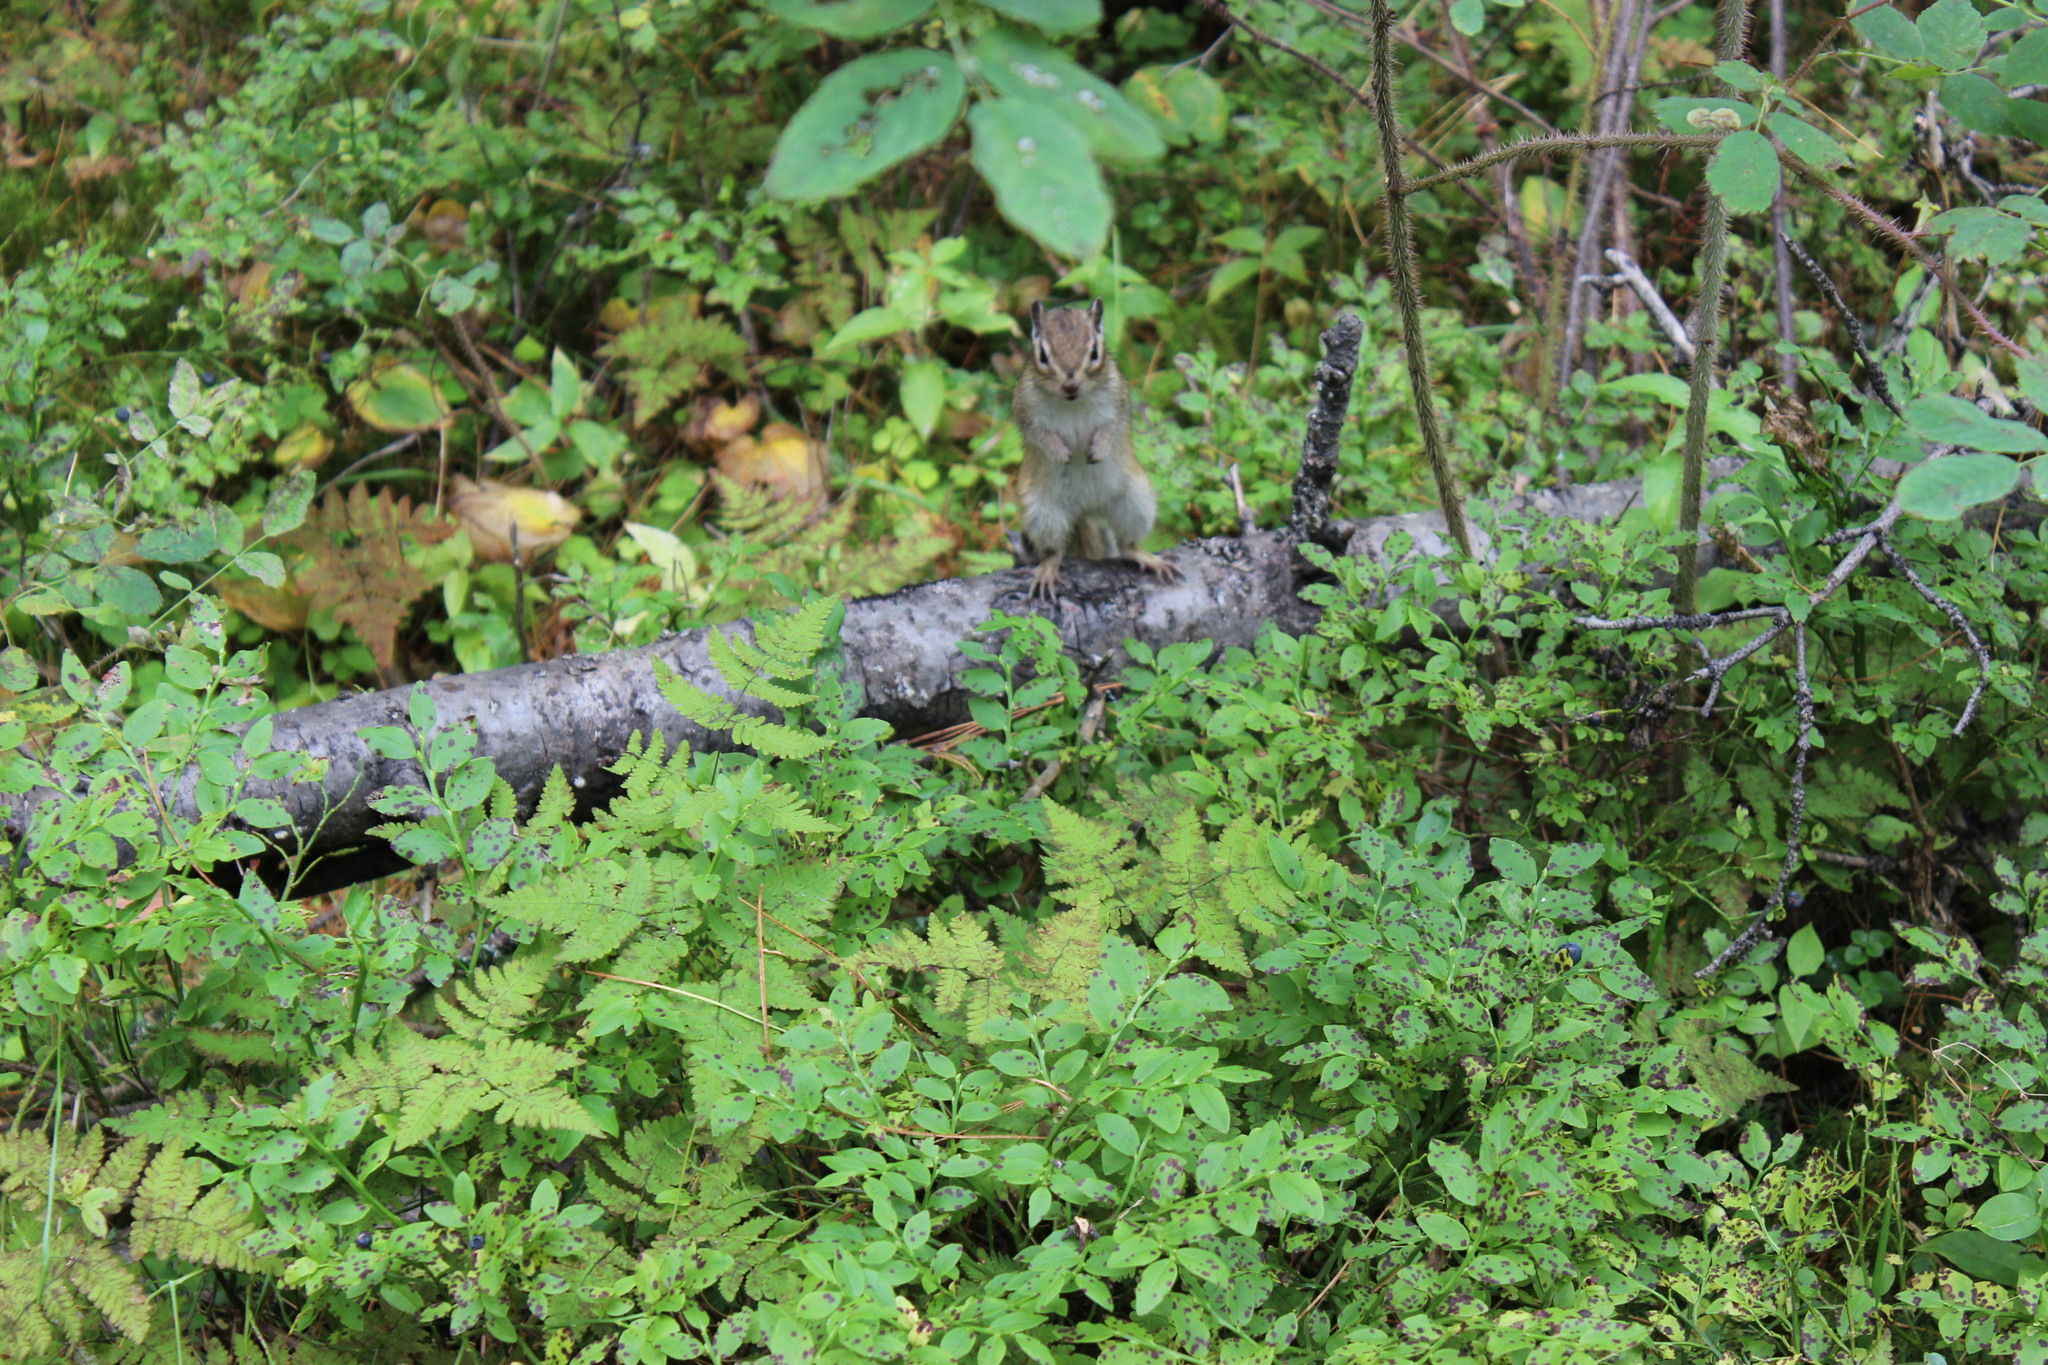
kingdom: Animalia
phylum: Chordata
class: Mammalia
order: Rodentia
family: Sciuridae
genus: Tamias
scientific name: Tamias sibiricus
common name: Siberian chipmunk
